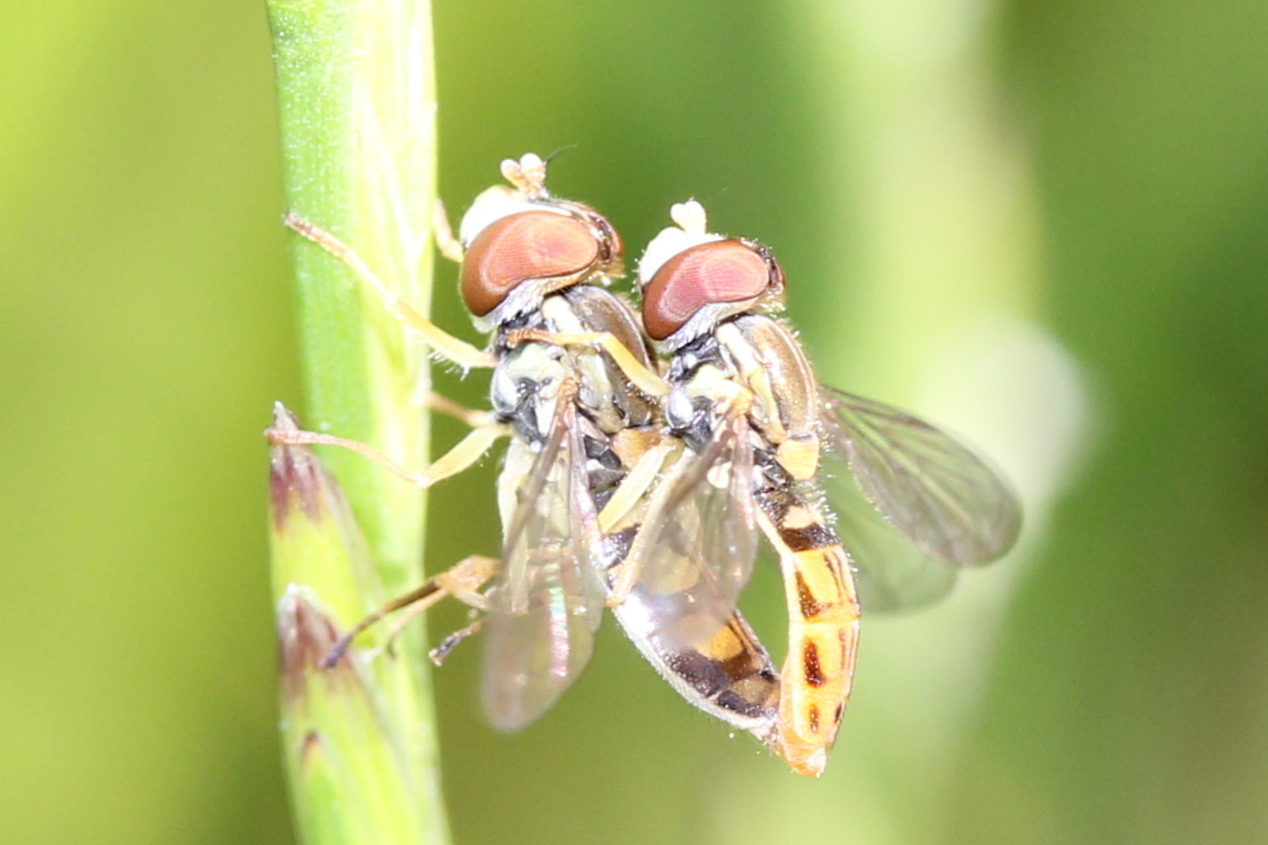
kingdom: Animalia
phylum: Arthropoda
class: Insecta
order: Diptera
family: Syrphidae
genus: Toxomerus
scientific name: Toxomerus marginatus
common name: Syrphid fly
